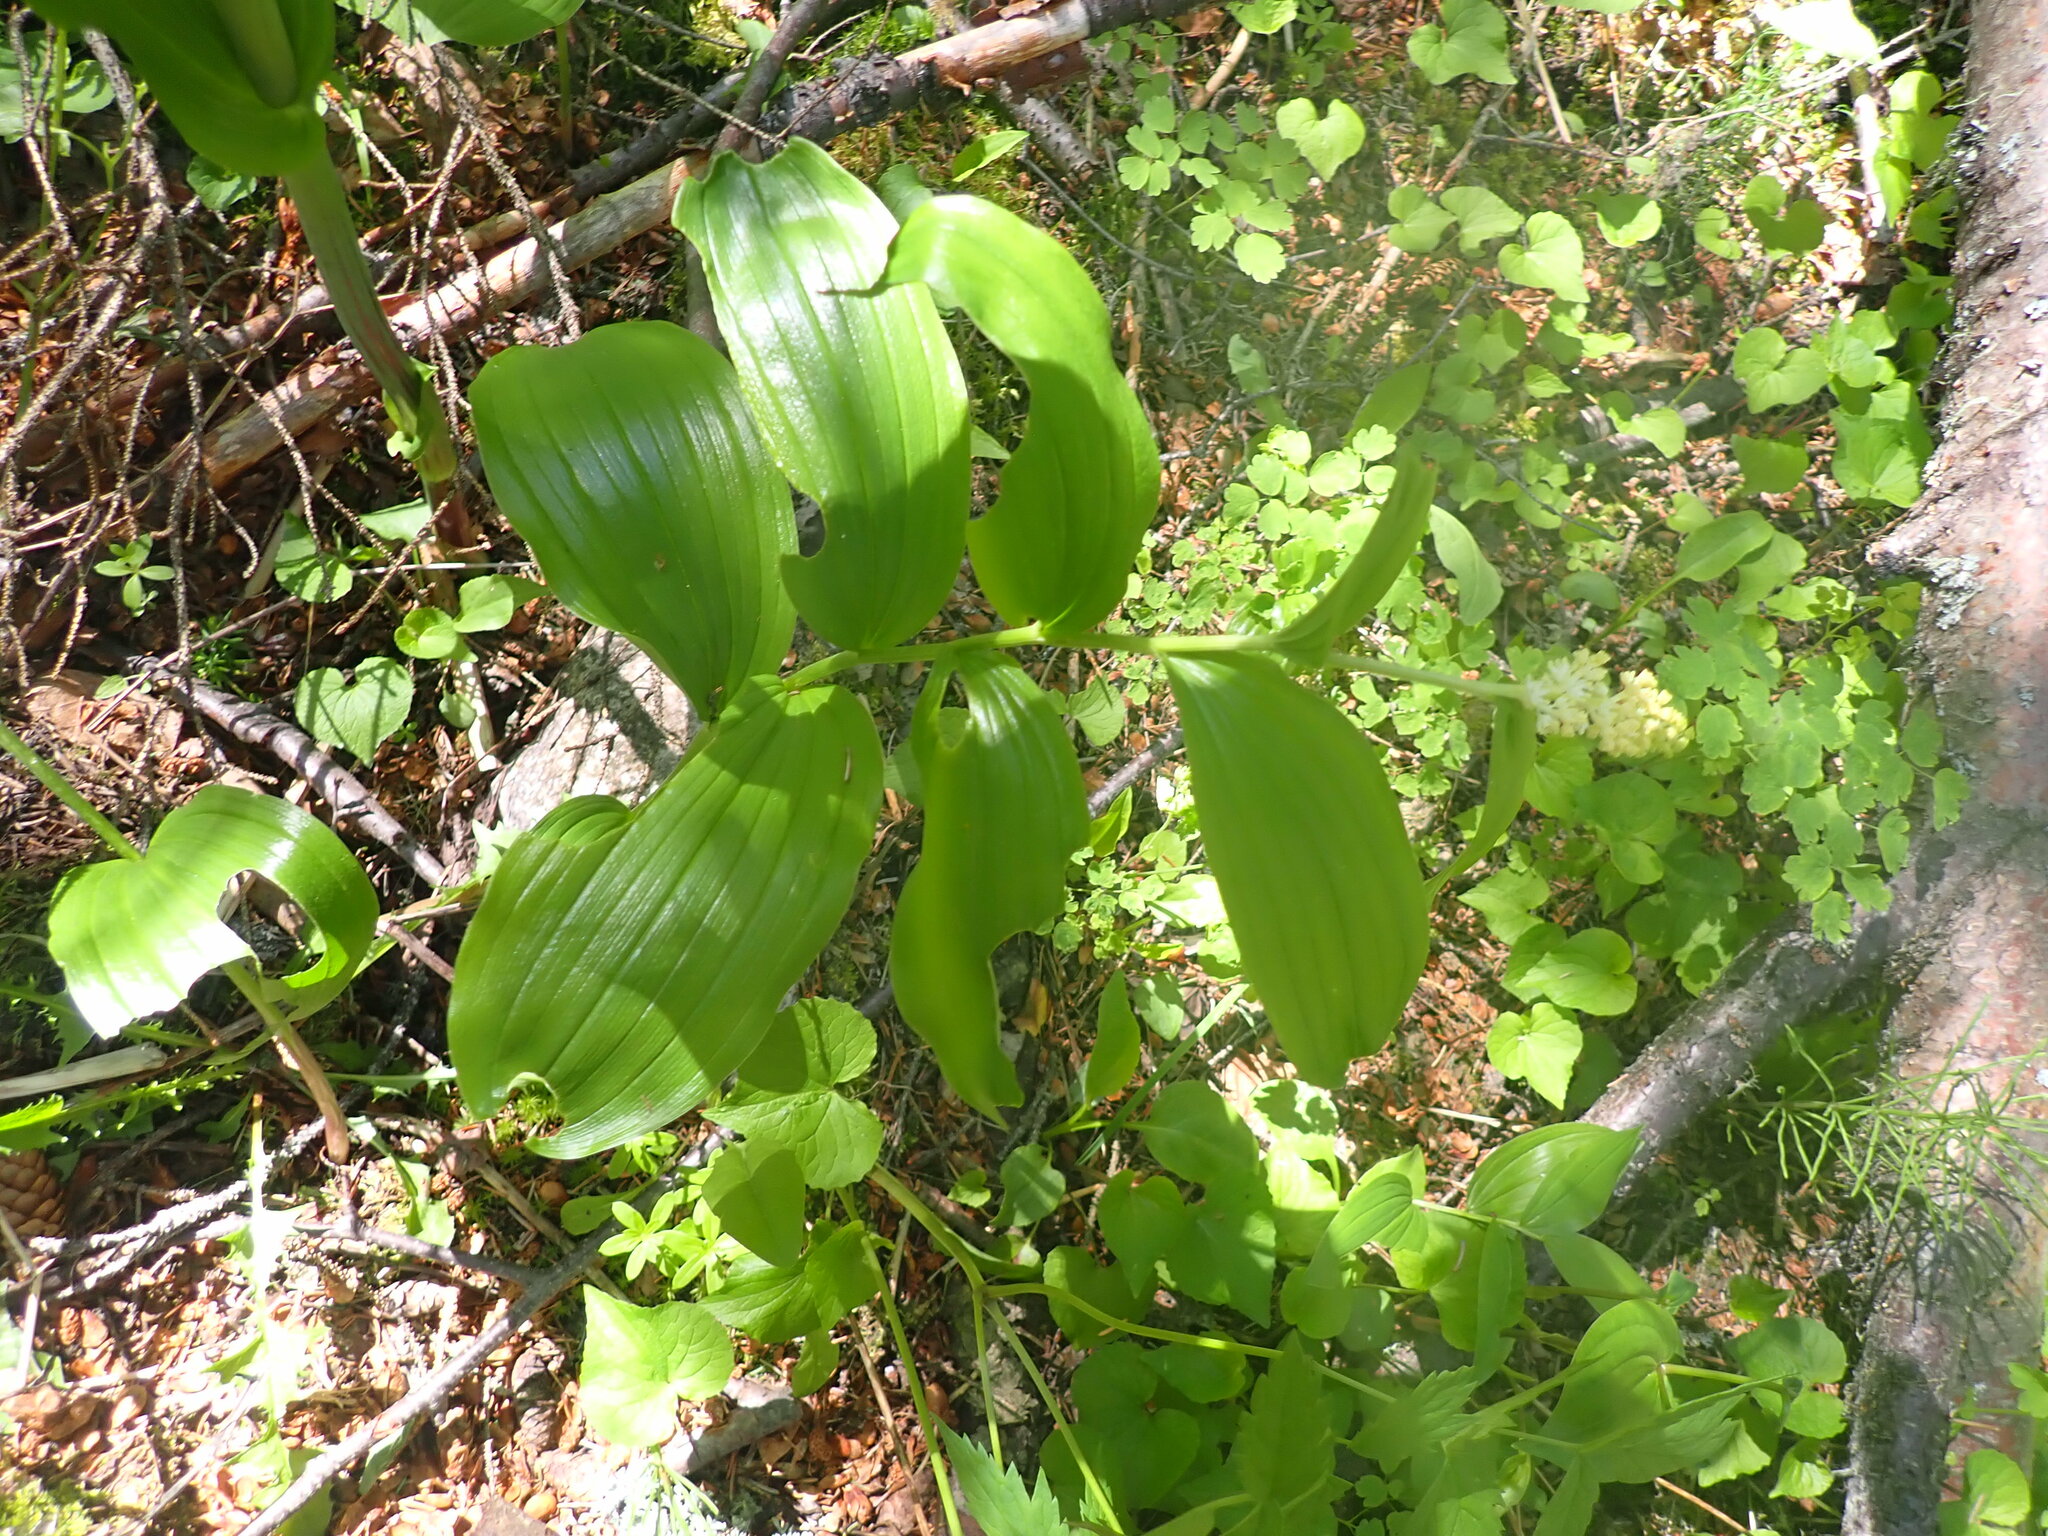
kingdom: Plantae
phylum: Tracheophyta
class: Liliopsida
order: Asparagales
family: Asparagaceae
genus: Maianthemum
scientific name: Maianthemum racemosum
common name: False spikenard
